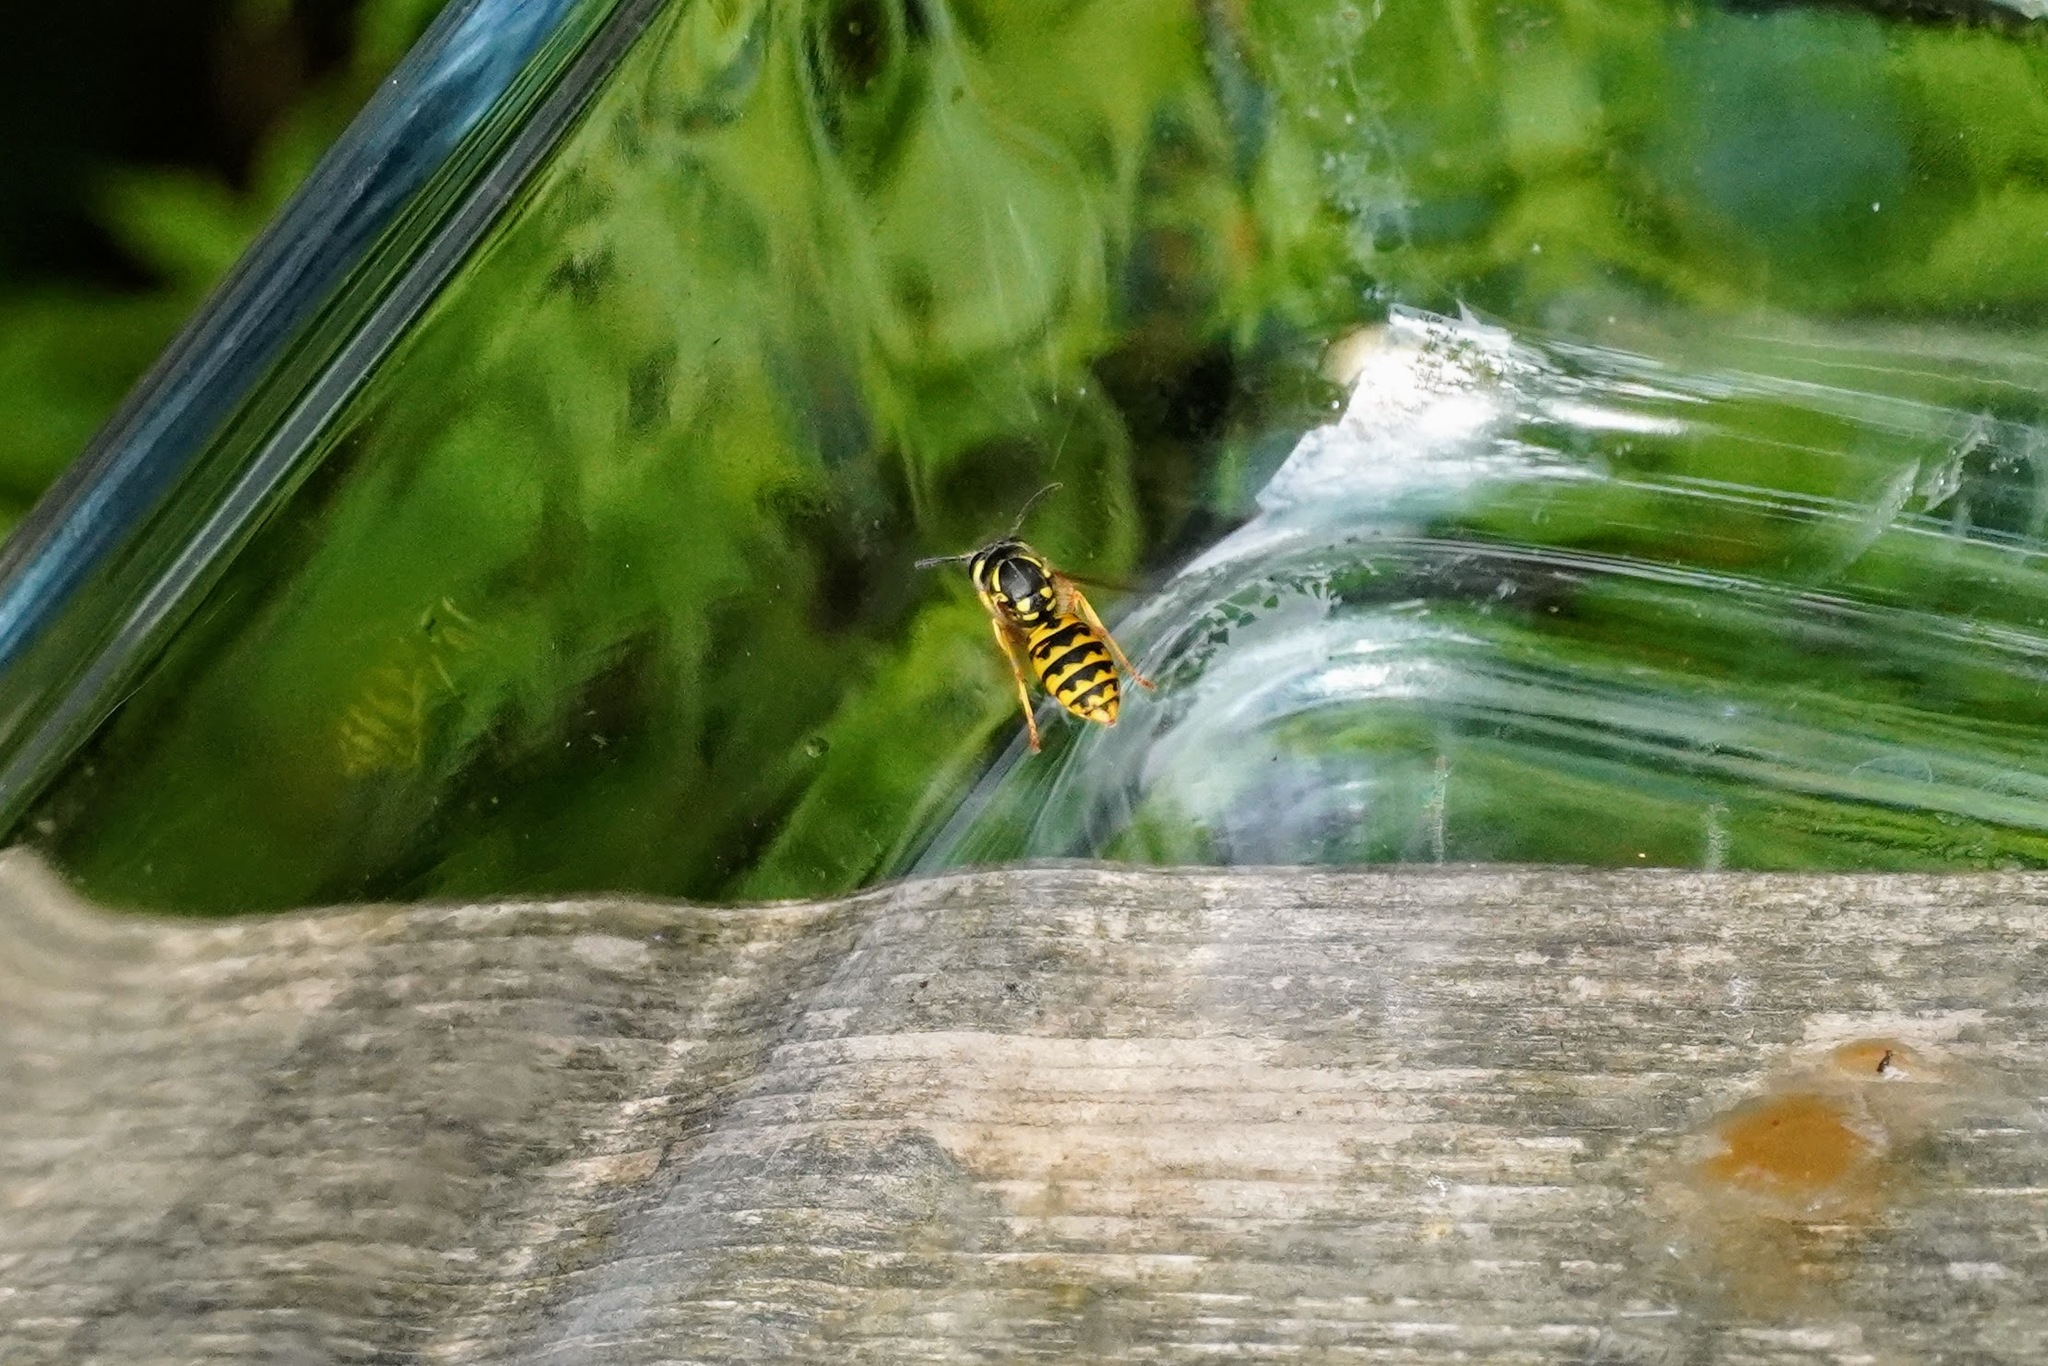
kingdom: Animalia
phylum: Arthropoda
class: Insecta
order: Hymenoptera
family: Vespidae
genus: Vespula
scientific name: Vespula germanica
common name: German wasp
